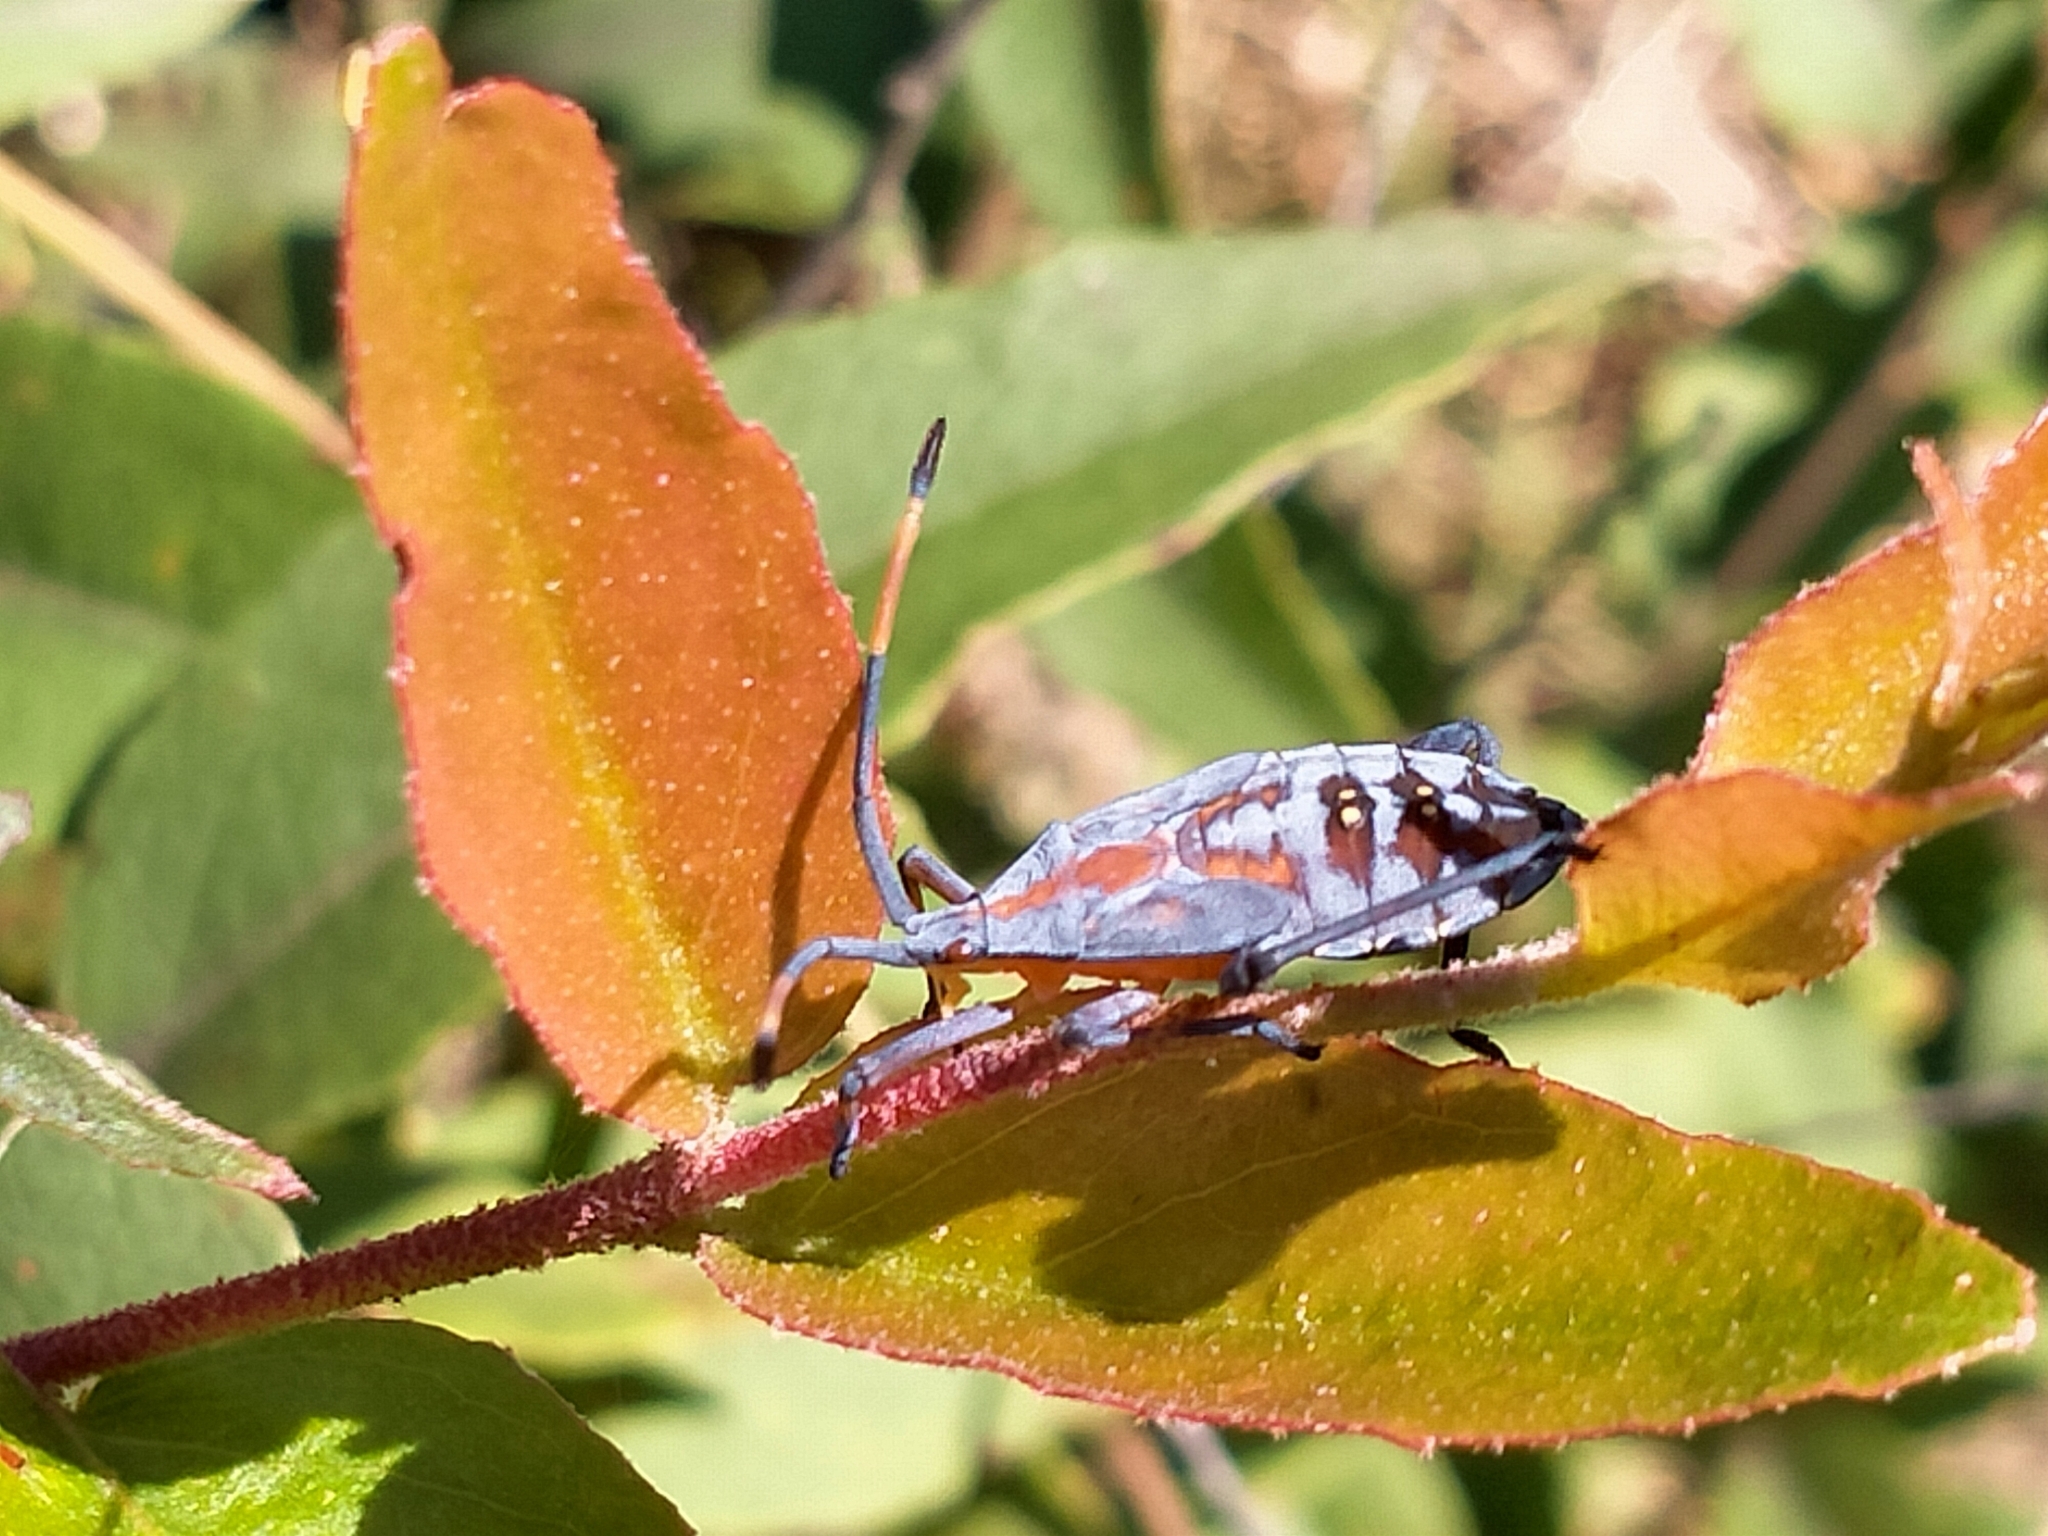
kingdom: Animalia
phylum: Arthropoda
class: Insecta
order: Hemiptera
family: Coreidae
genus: Amorbus
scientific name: Amorbus rubiginosus
